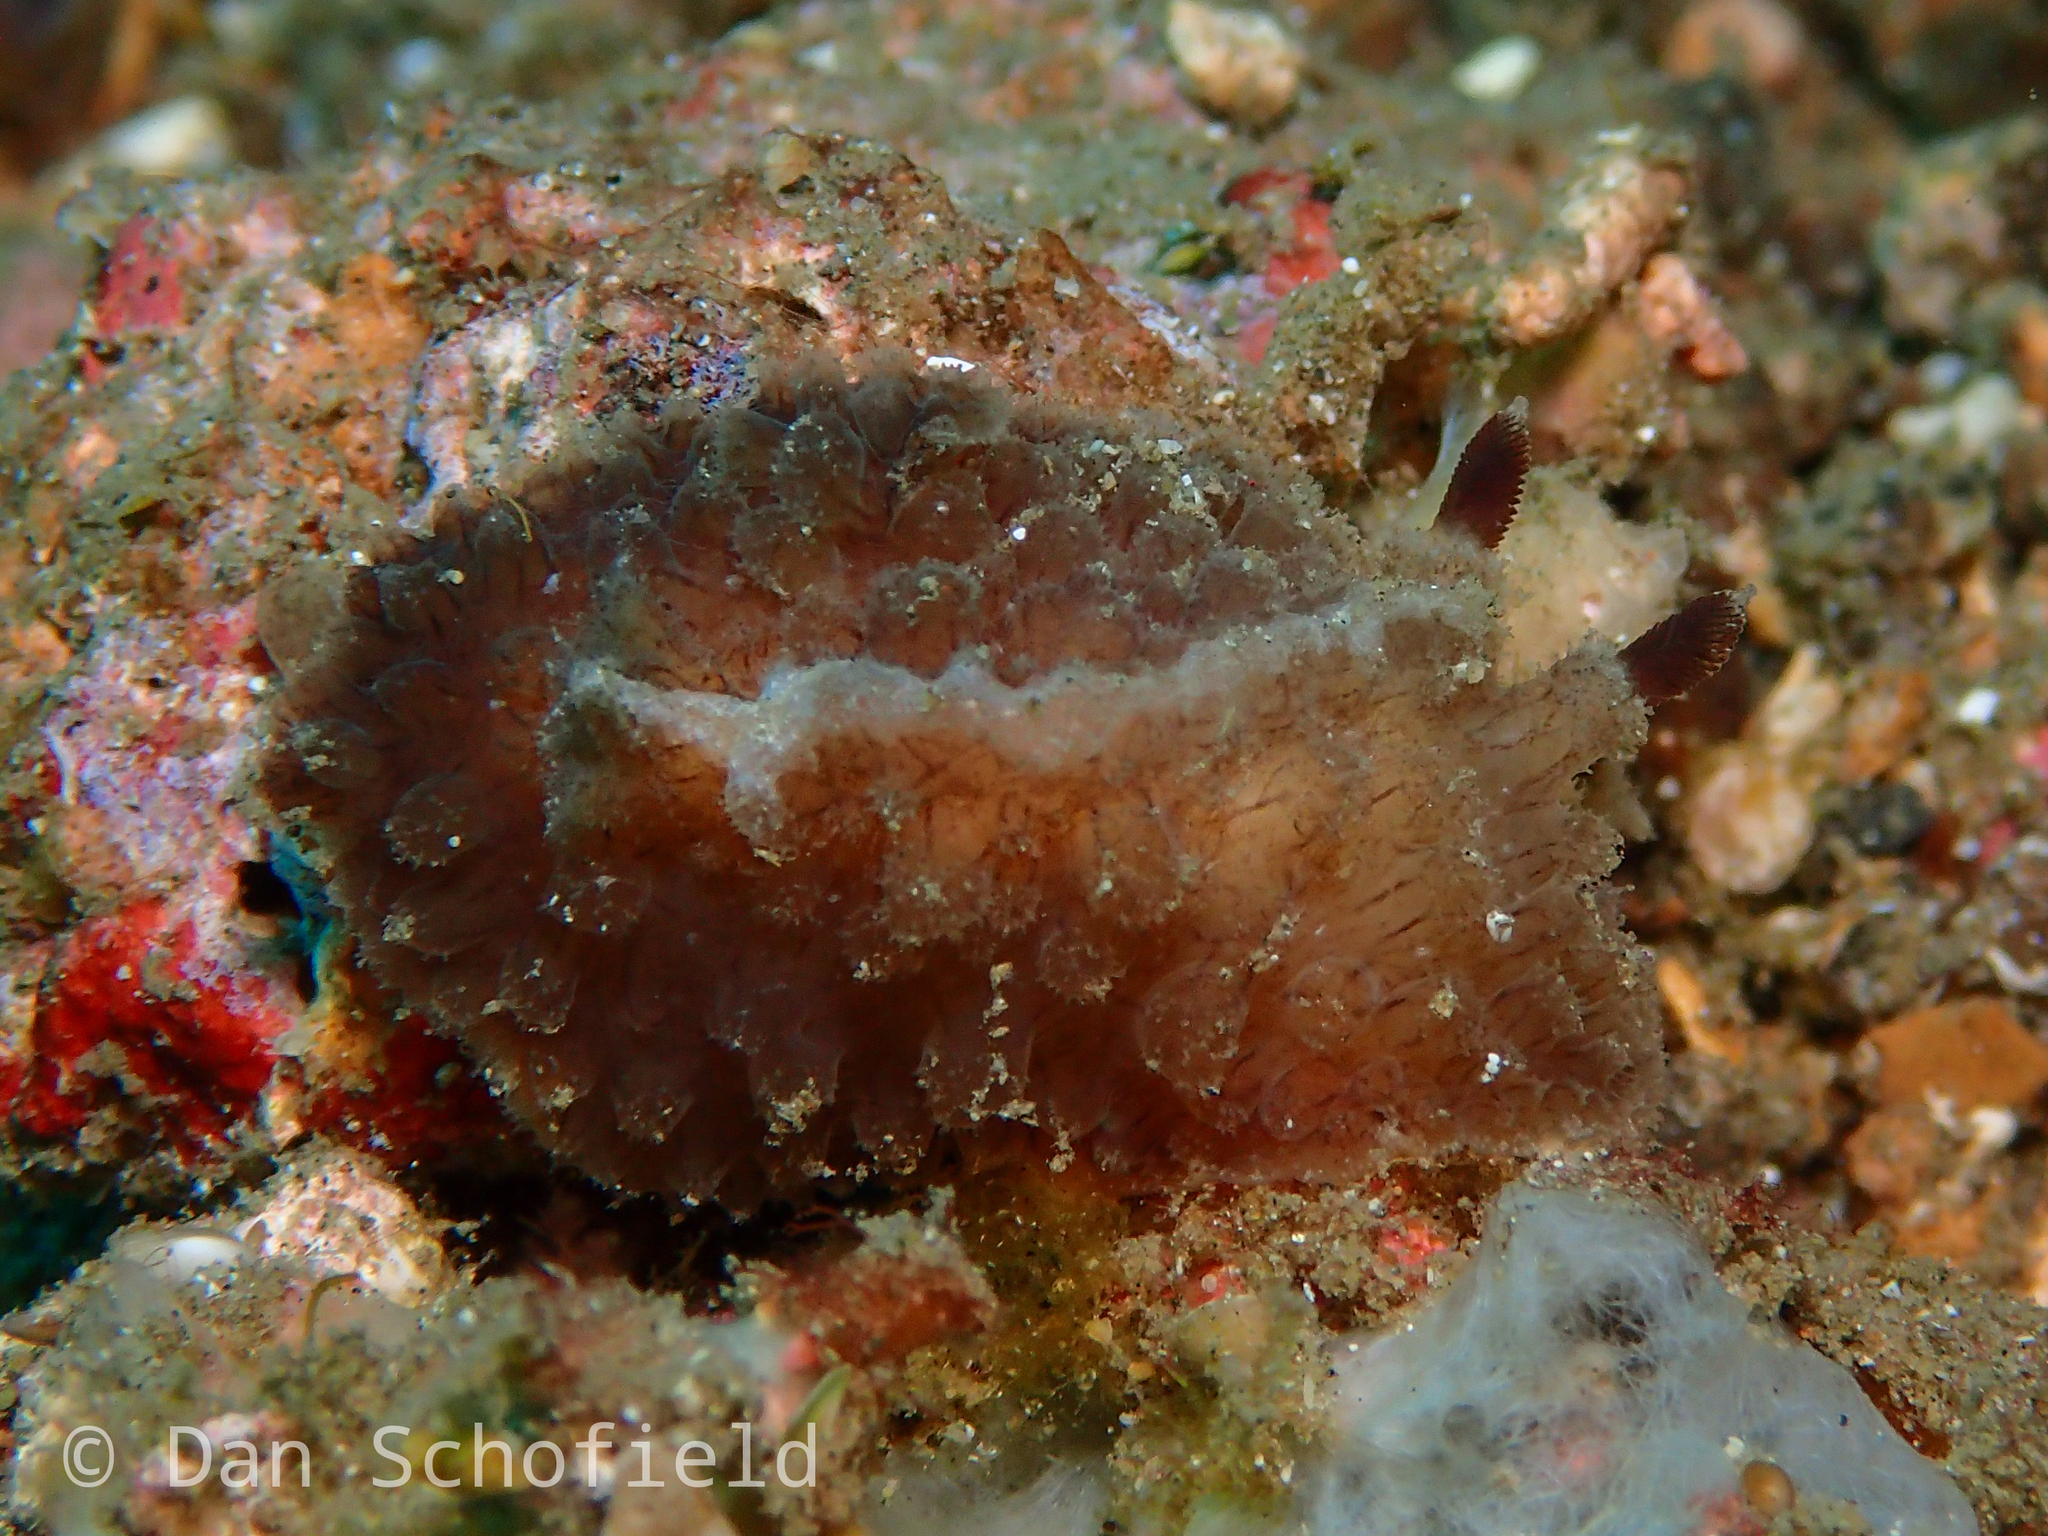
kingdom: Animalia
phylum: Mollusca
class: Gastropoda
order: Nudibranchia
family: Discodorididae
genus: Atagema
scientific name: Atagema intecta
